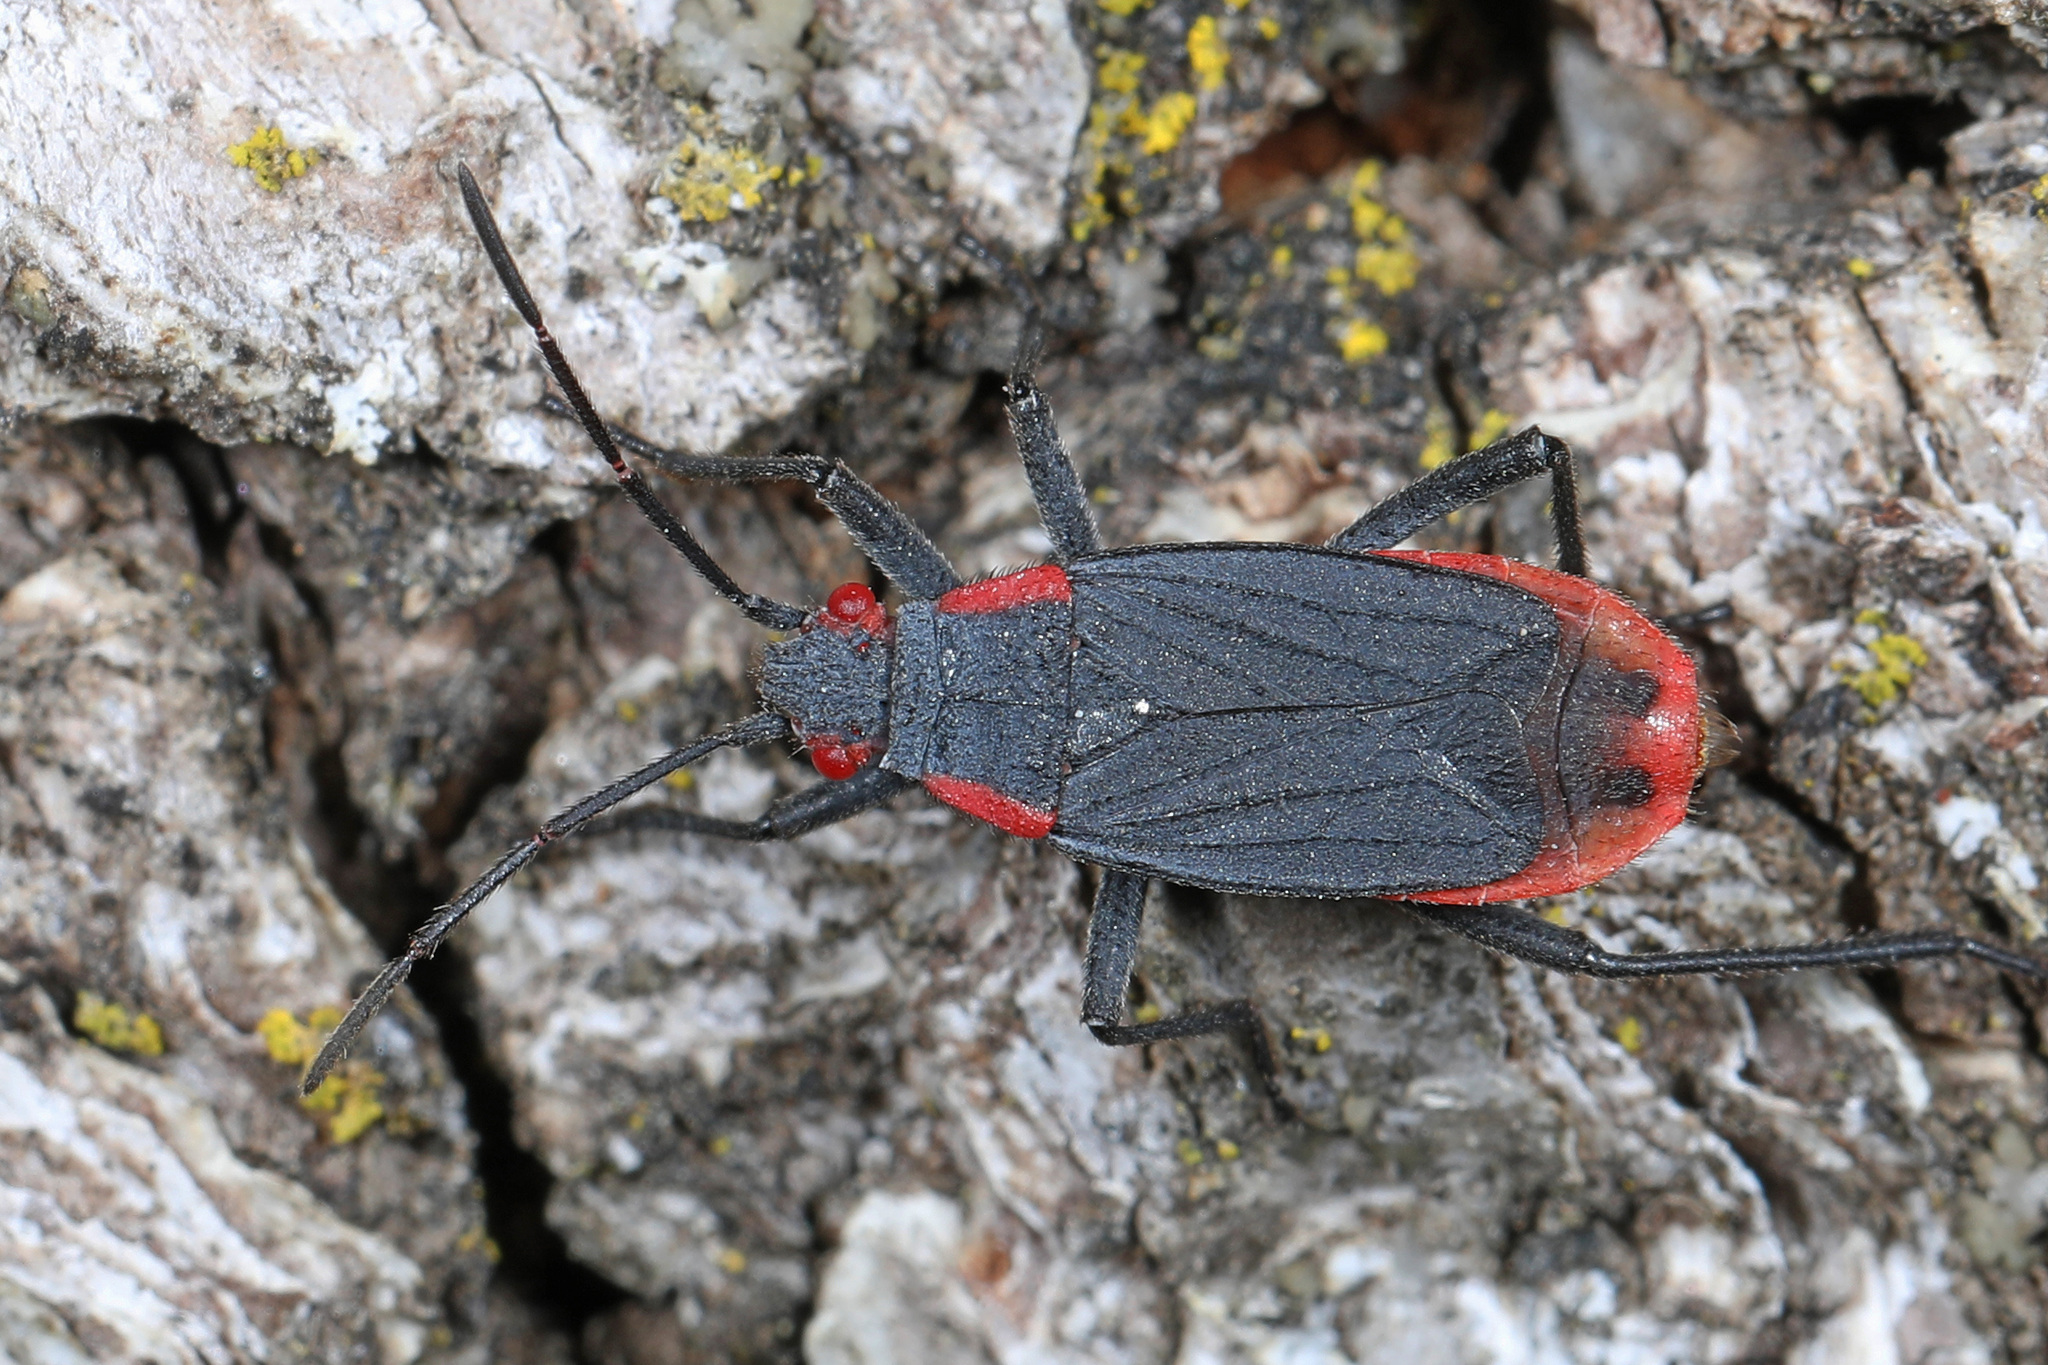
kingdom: Animalia
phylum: Arthropoda
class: Insecta
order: Hemiptera
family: Rhopalidae
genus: Jadera
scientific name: Jadera haematoloma
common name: Red-shouldered bug
